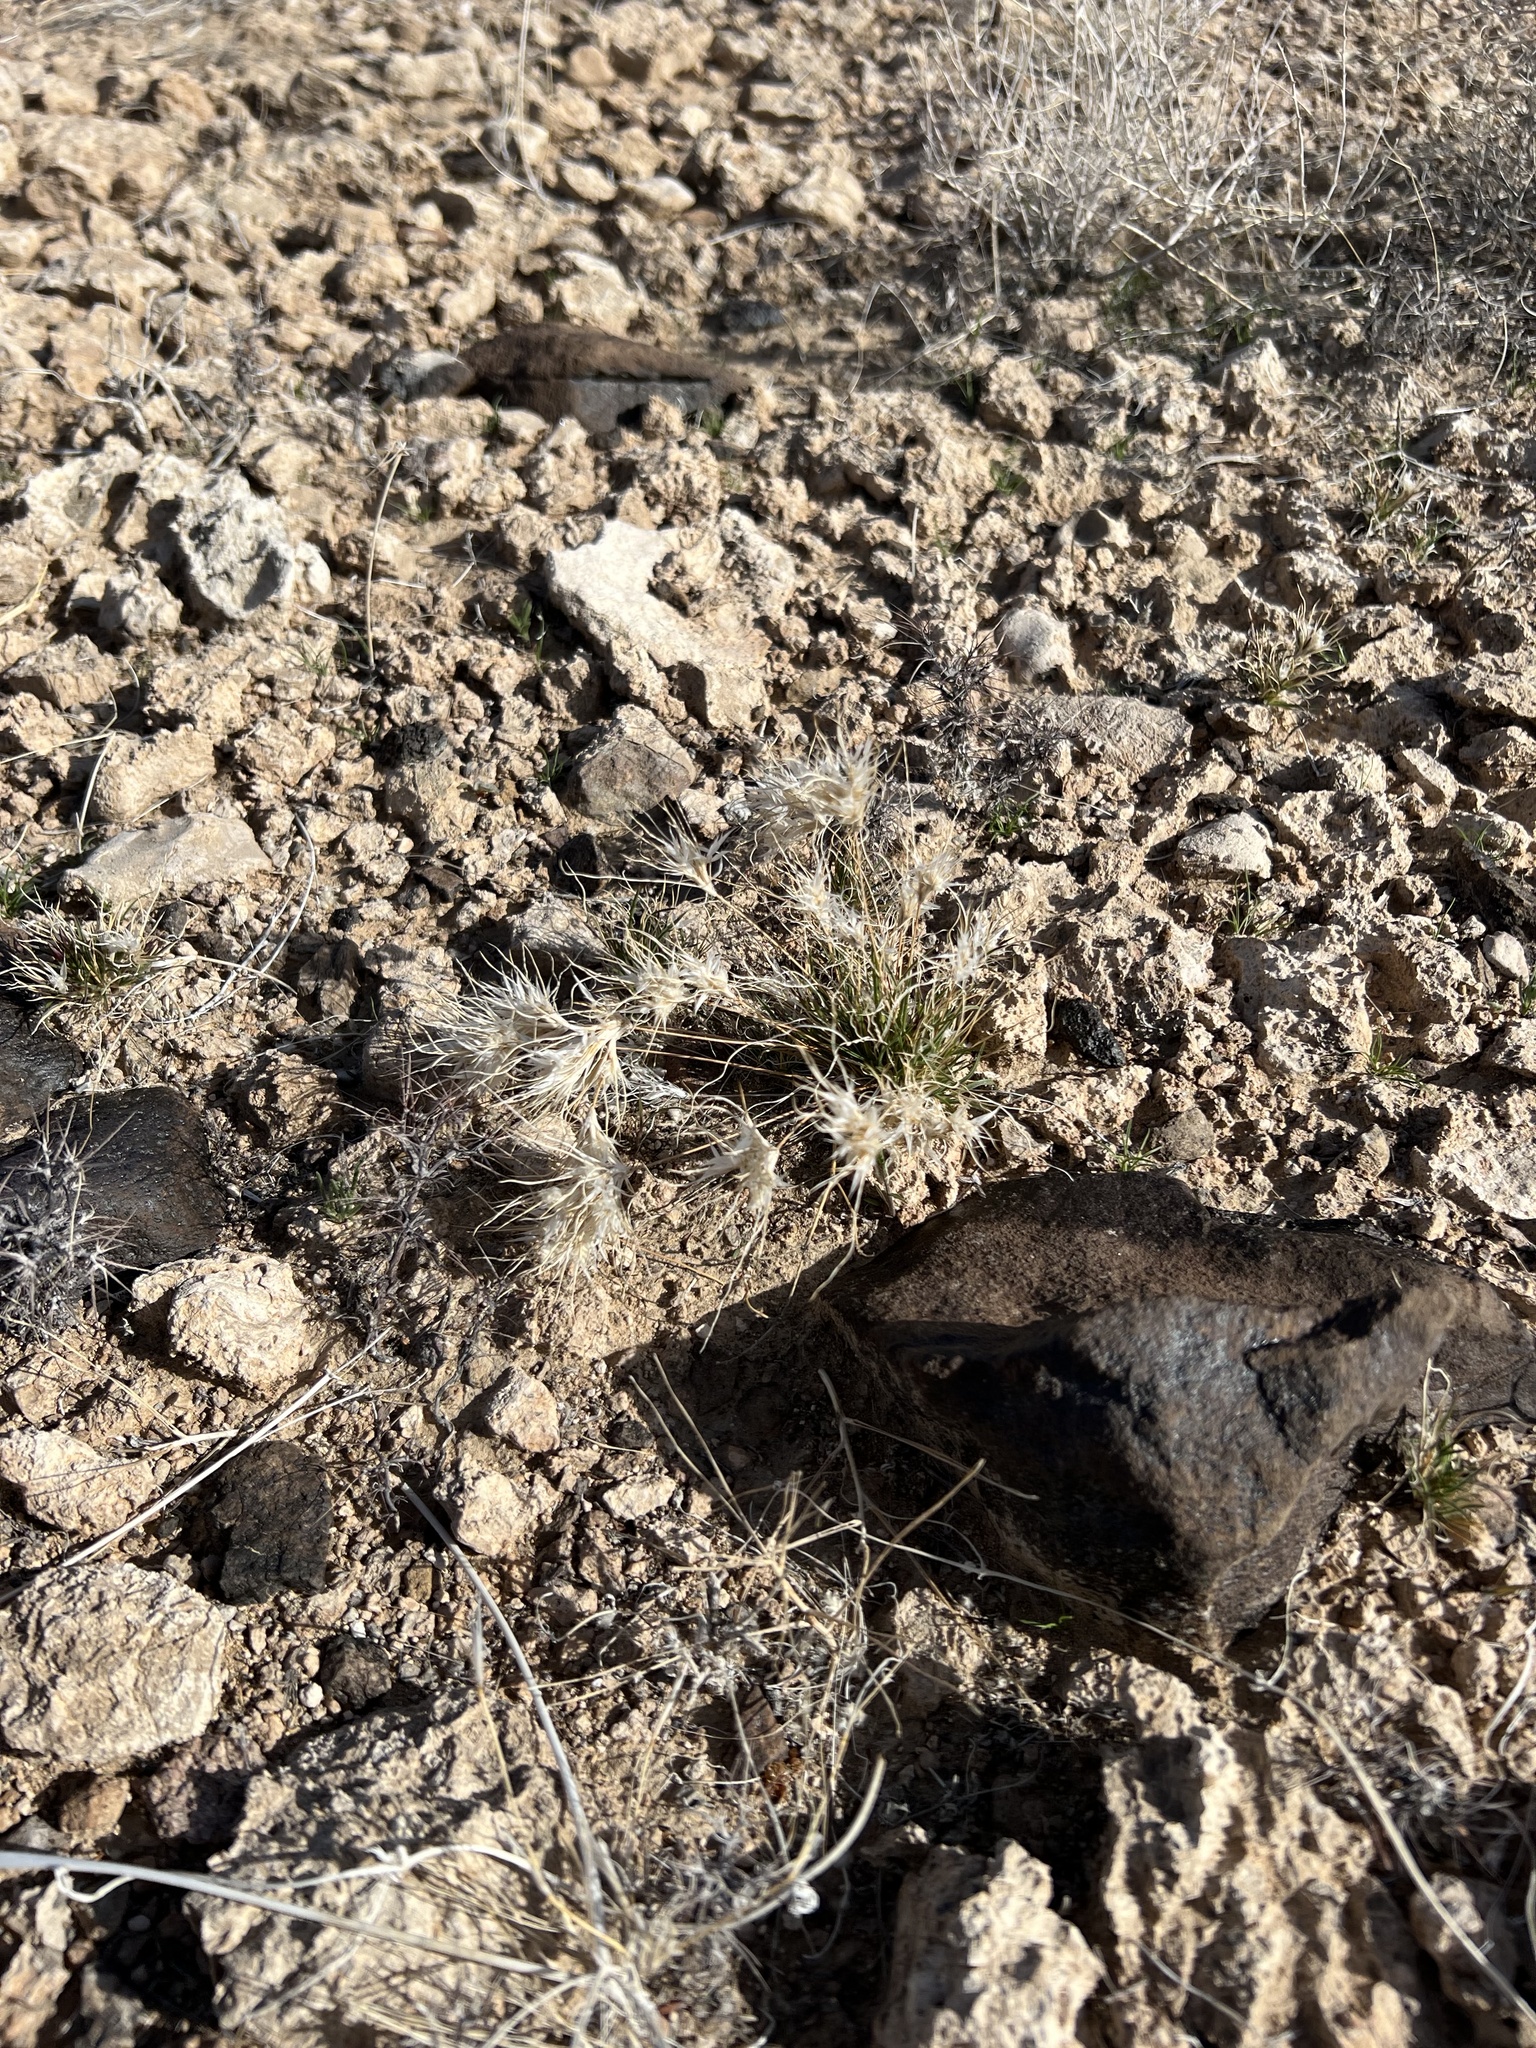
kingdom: Plantae
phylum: Tracheophyta
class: Liliopsida
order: Poales
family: Poaceae
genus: Dasyochloa
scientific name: Dasyochloa pulchella
